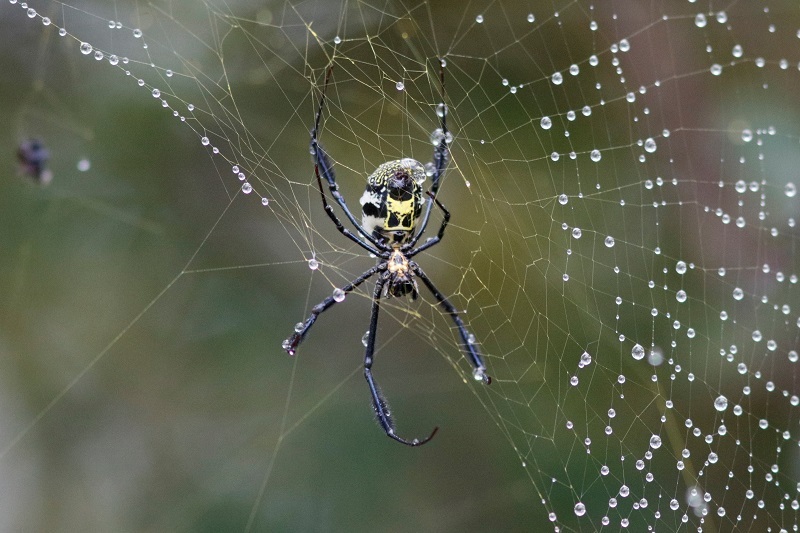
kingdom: Animalia
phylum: Arthropoda
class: Arachnida
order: Araneae
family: Araneidae
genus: Trichonephila
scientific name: Trichonephila fenestrata
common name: Hairy golden orb weaver
